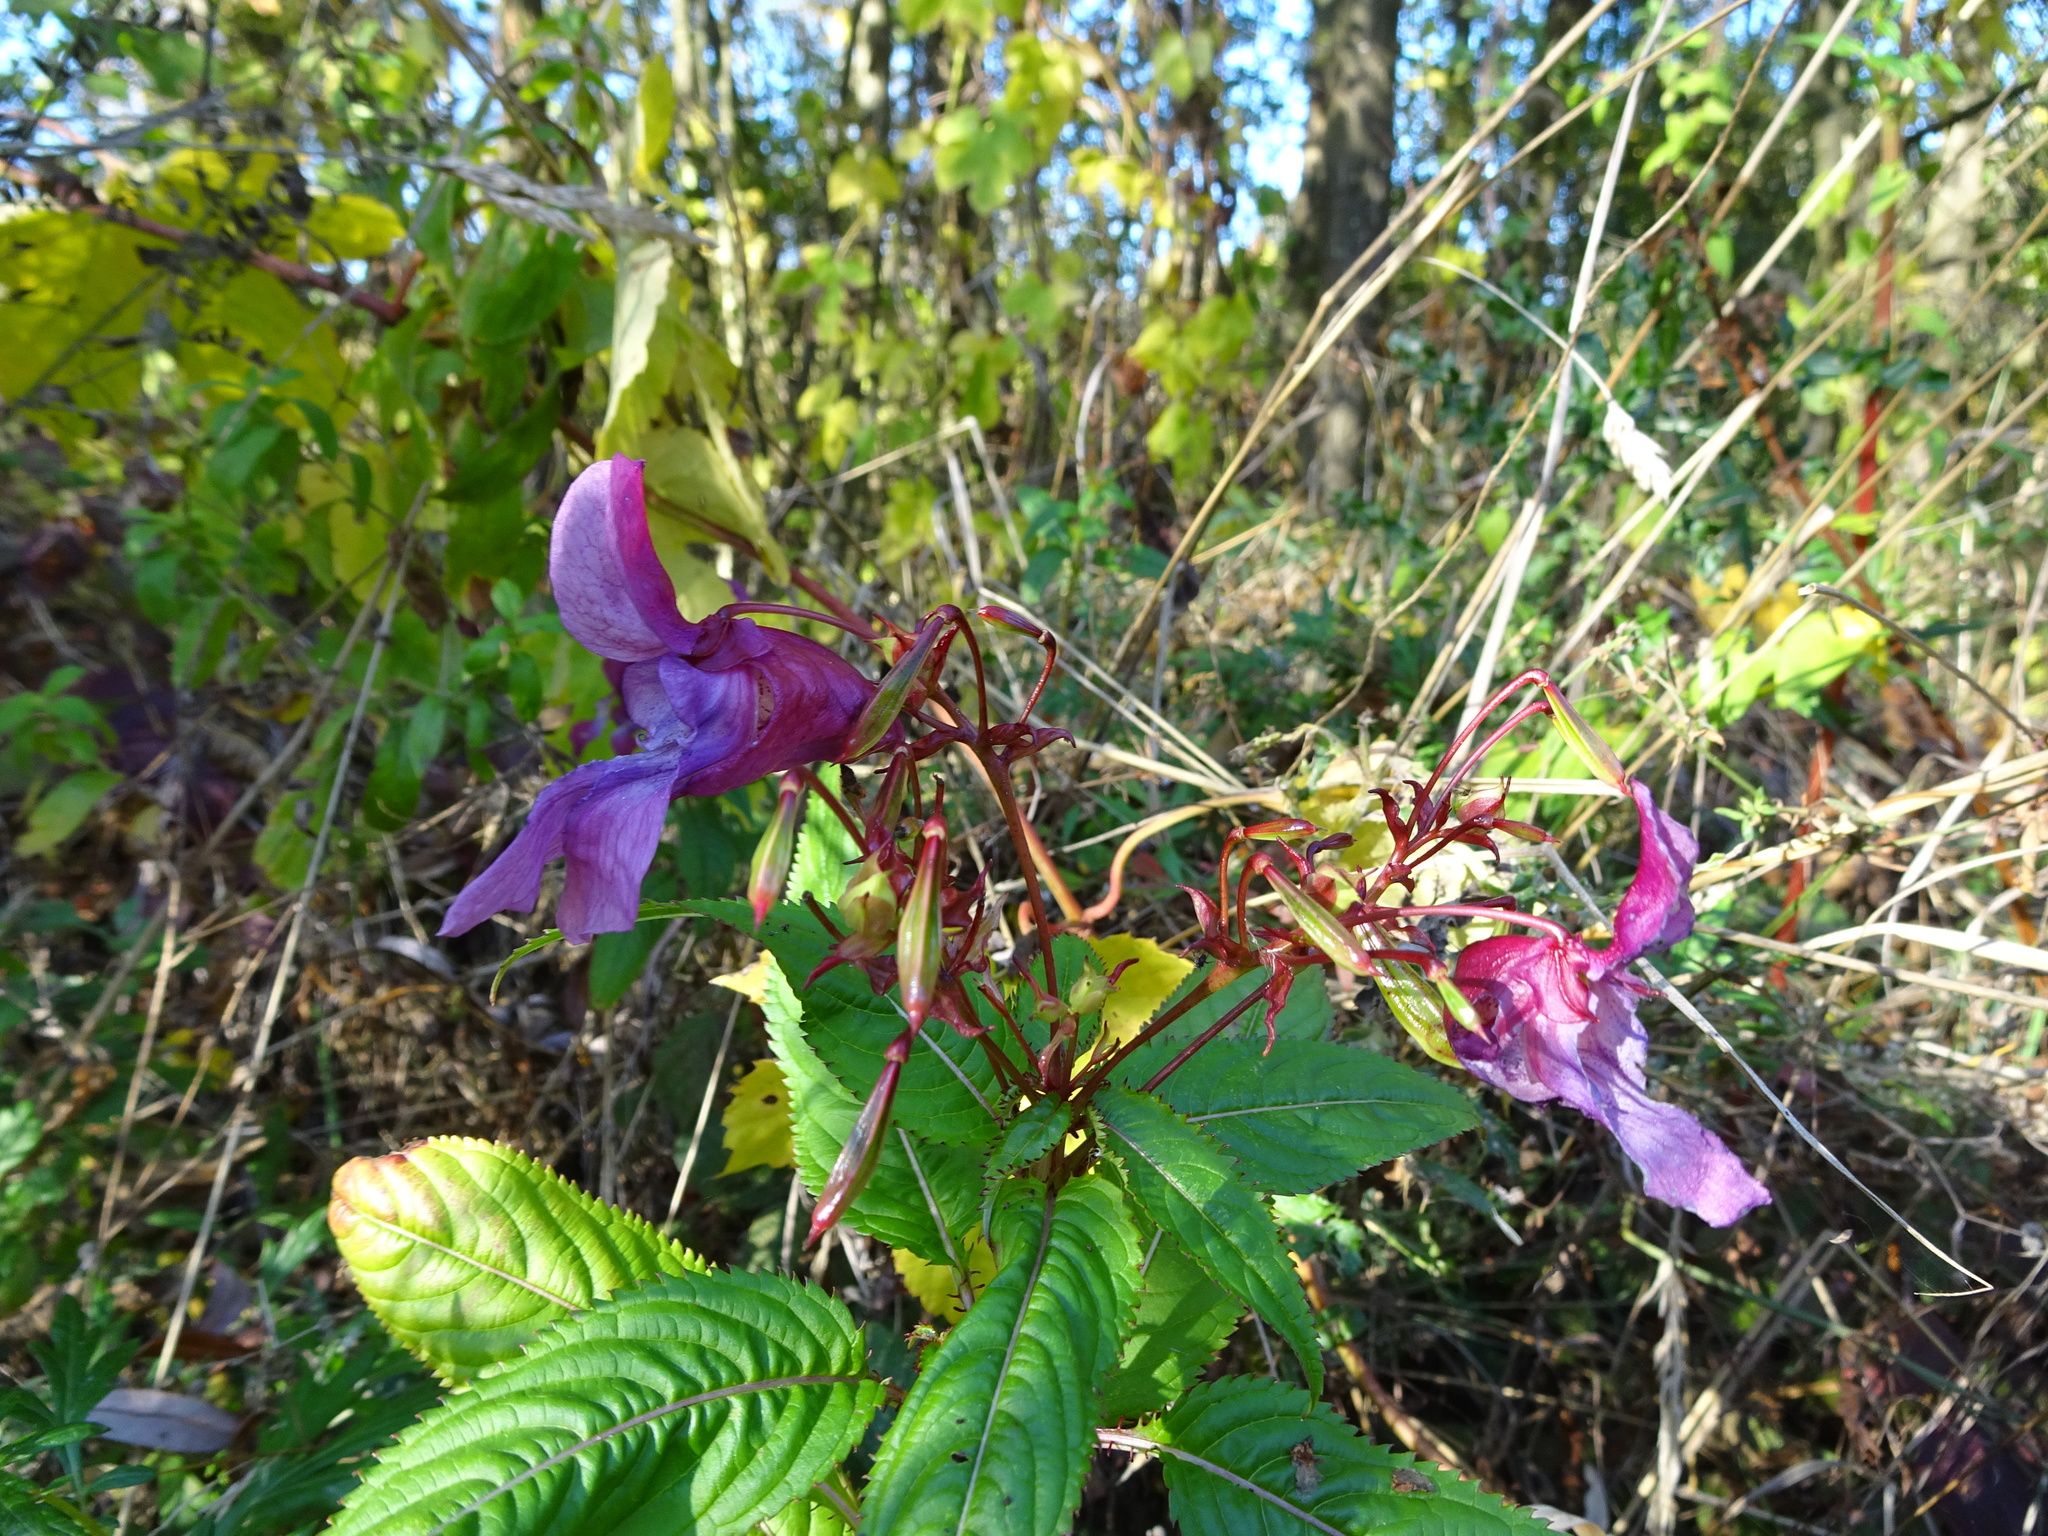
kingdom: Plantae
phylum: Tracheophyta
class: Magnoliopsida
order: Ericales
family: Balsaminaceae
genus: Impatiens
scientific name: Impatiens glandulifera
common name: Himalayan balsam
